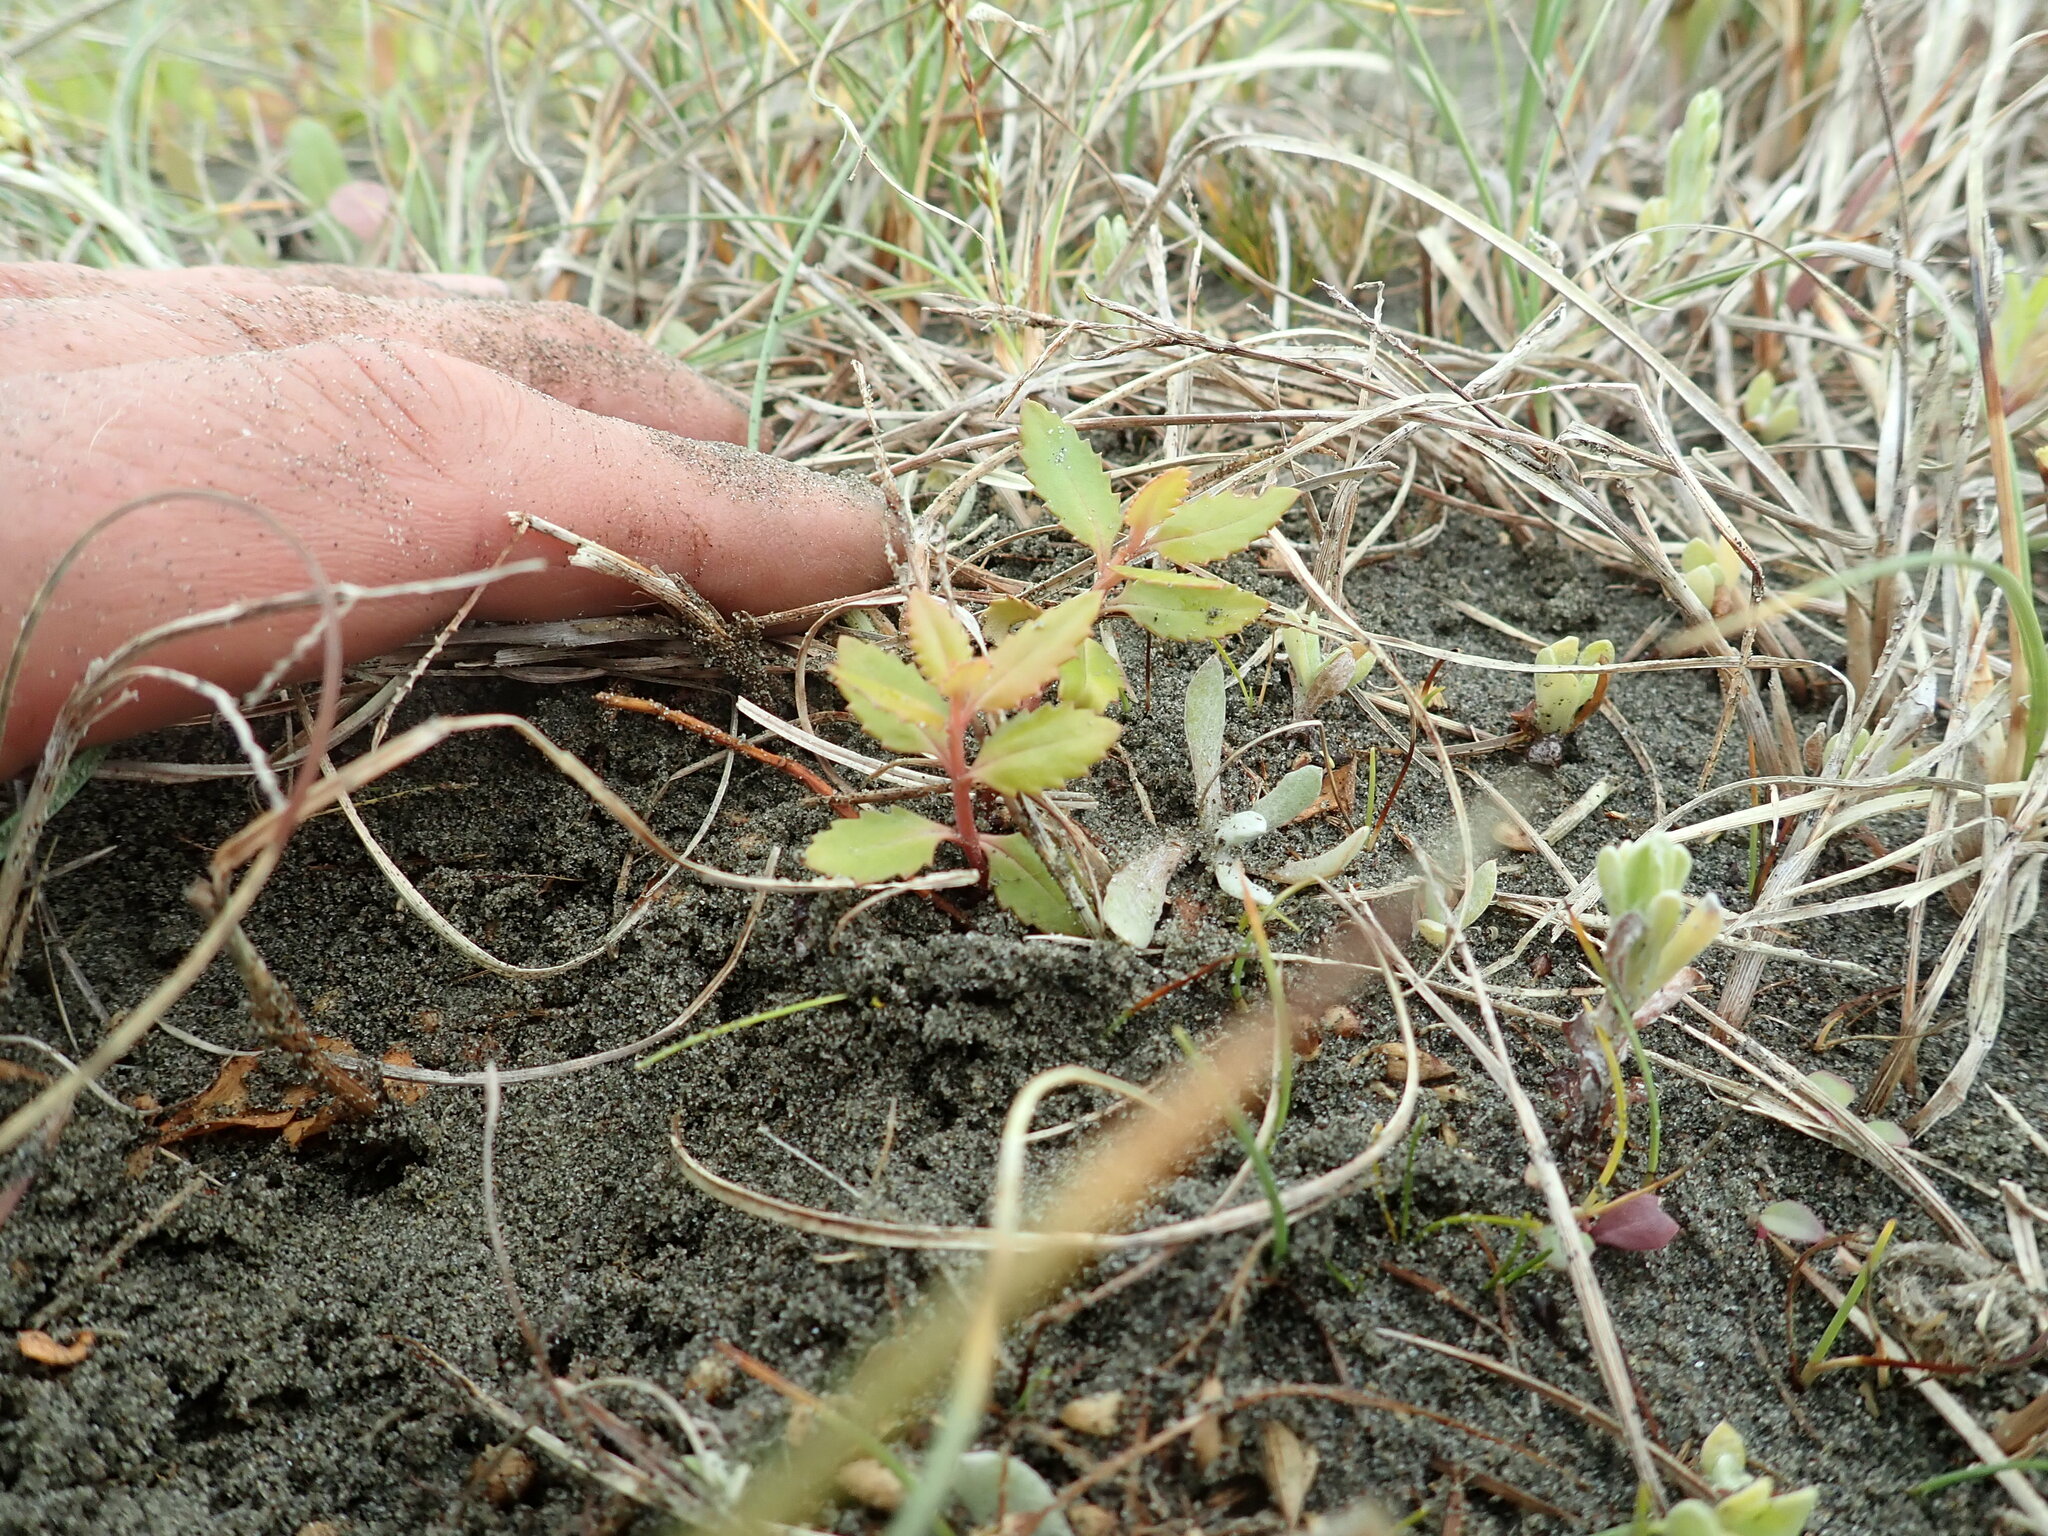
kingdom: Plantae
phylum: Tracheophyta
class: Magnoliopsida
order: Saxifragales
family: Haloragaceae
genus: Haloragis
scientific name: Haloragis erecta
